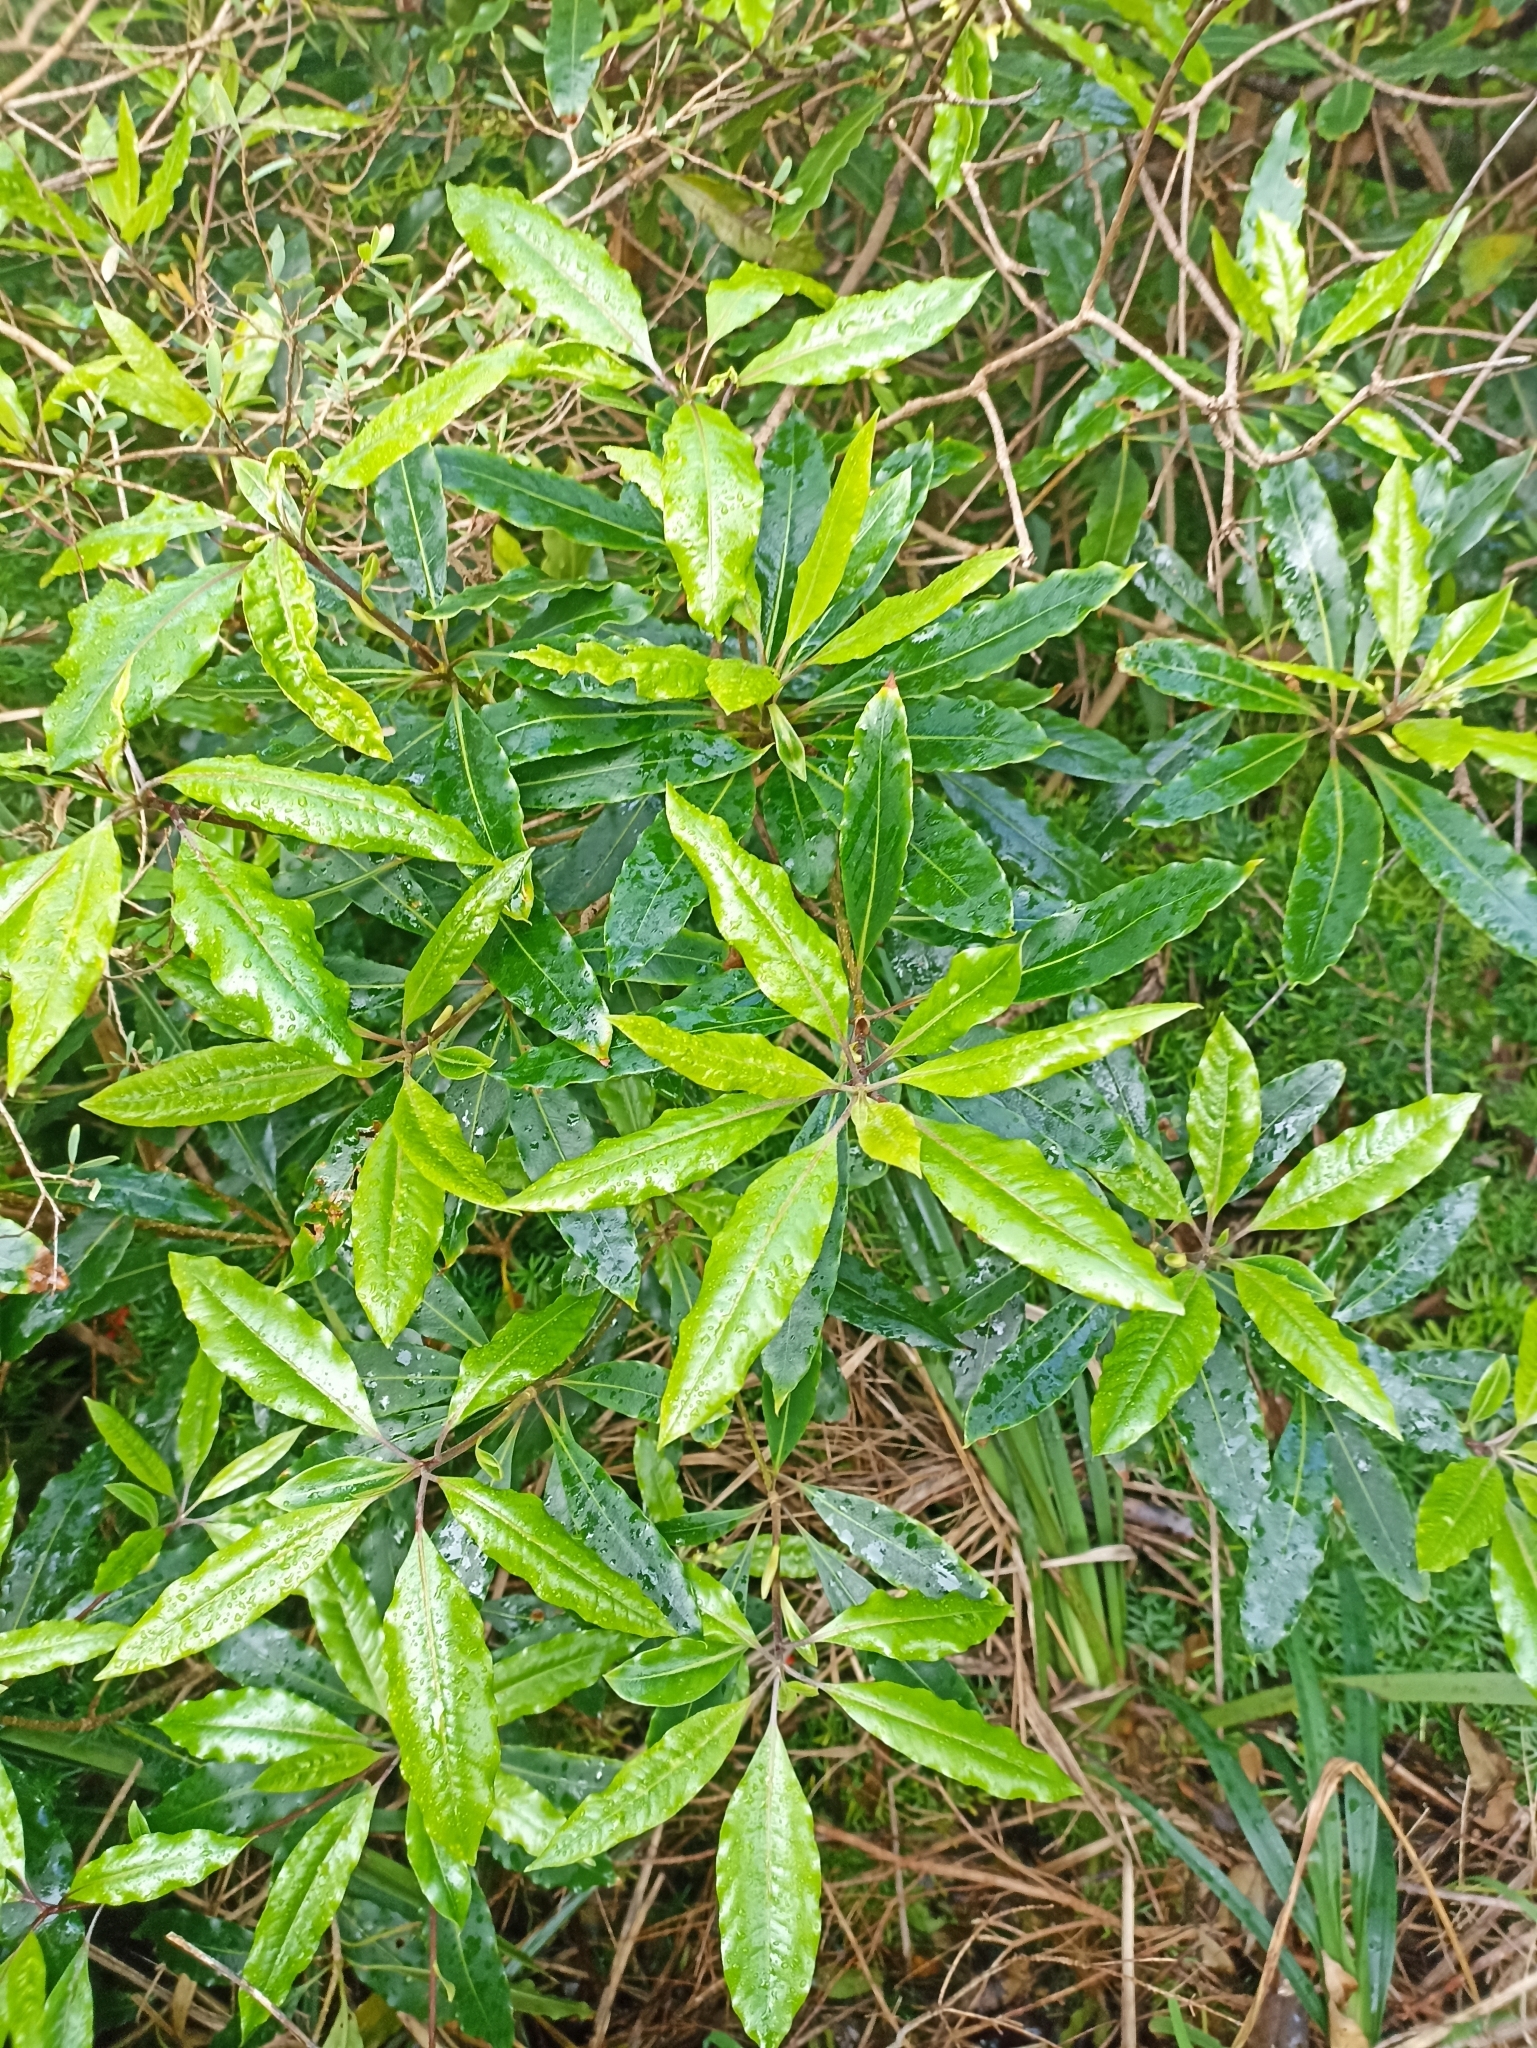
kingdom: Plantae
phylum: Tracheophyta
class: Magnoliopsida
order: Apiales
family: Pittosporaceae
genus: Pittosporum
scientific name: Pittosporum undulatum
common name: Australian cheesewood
